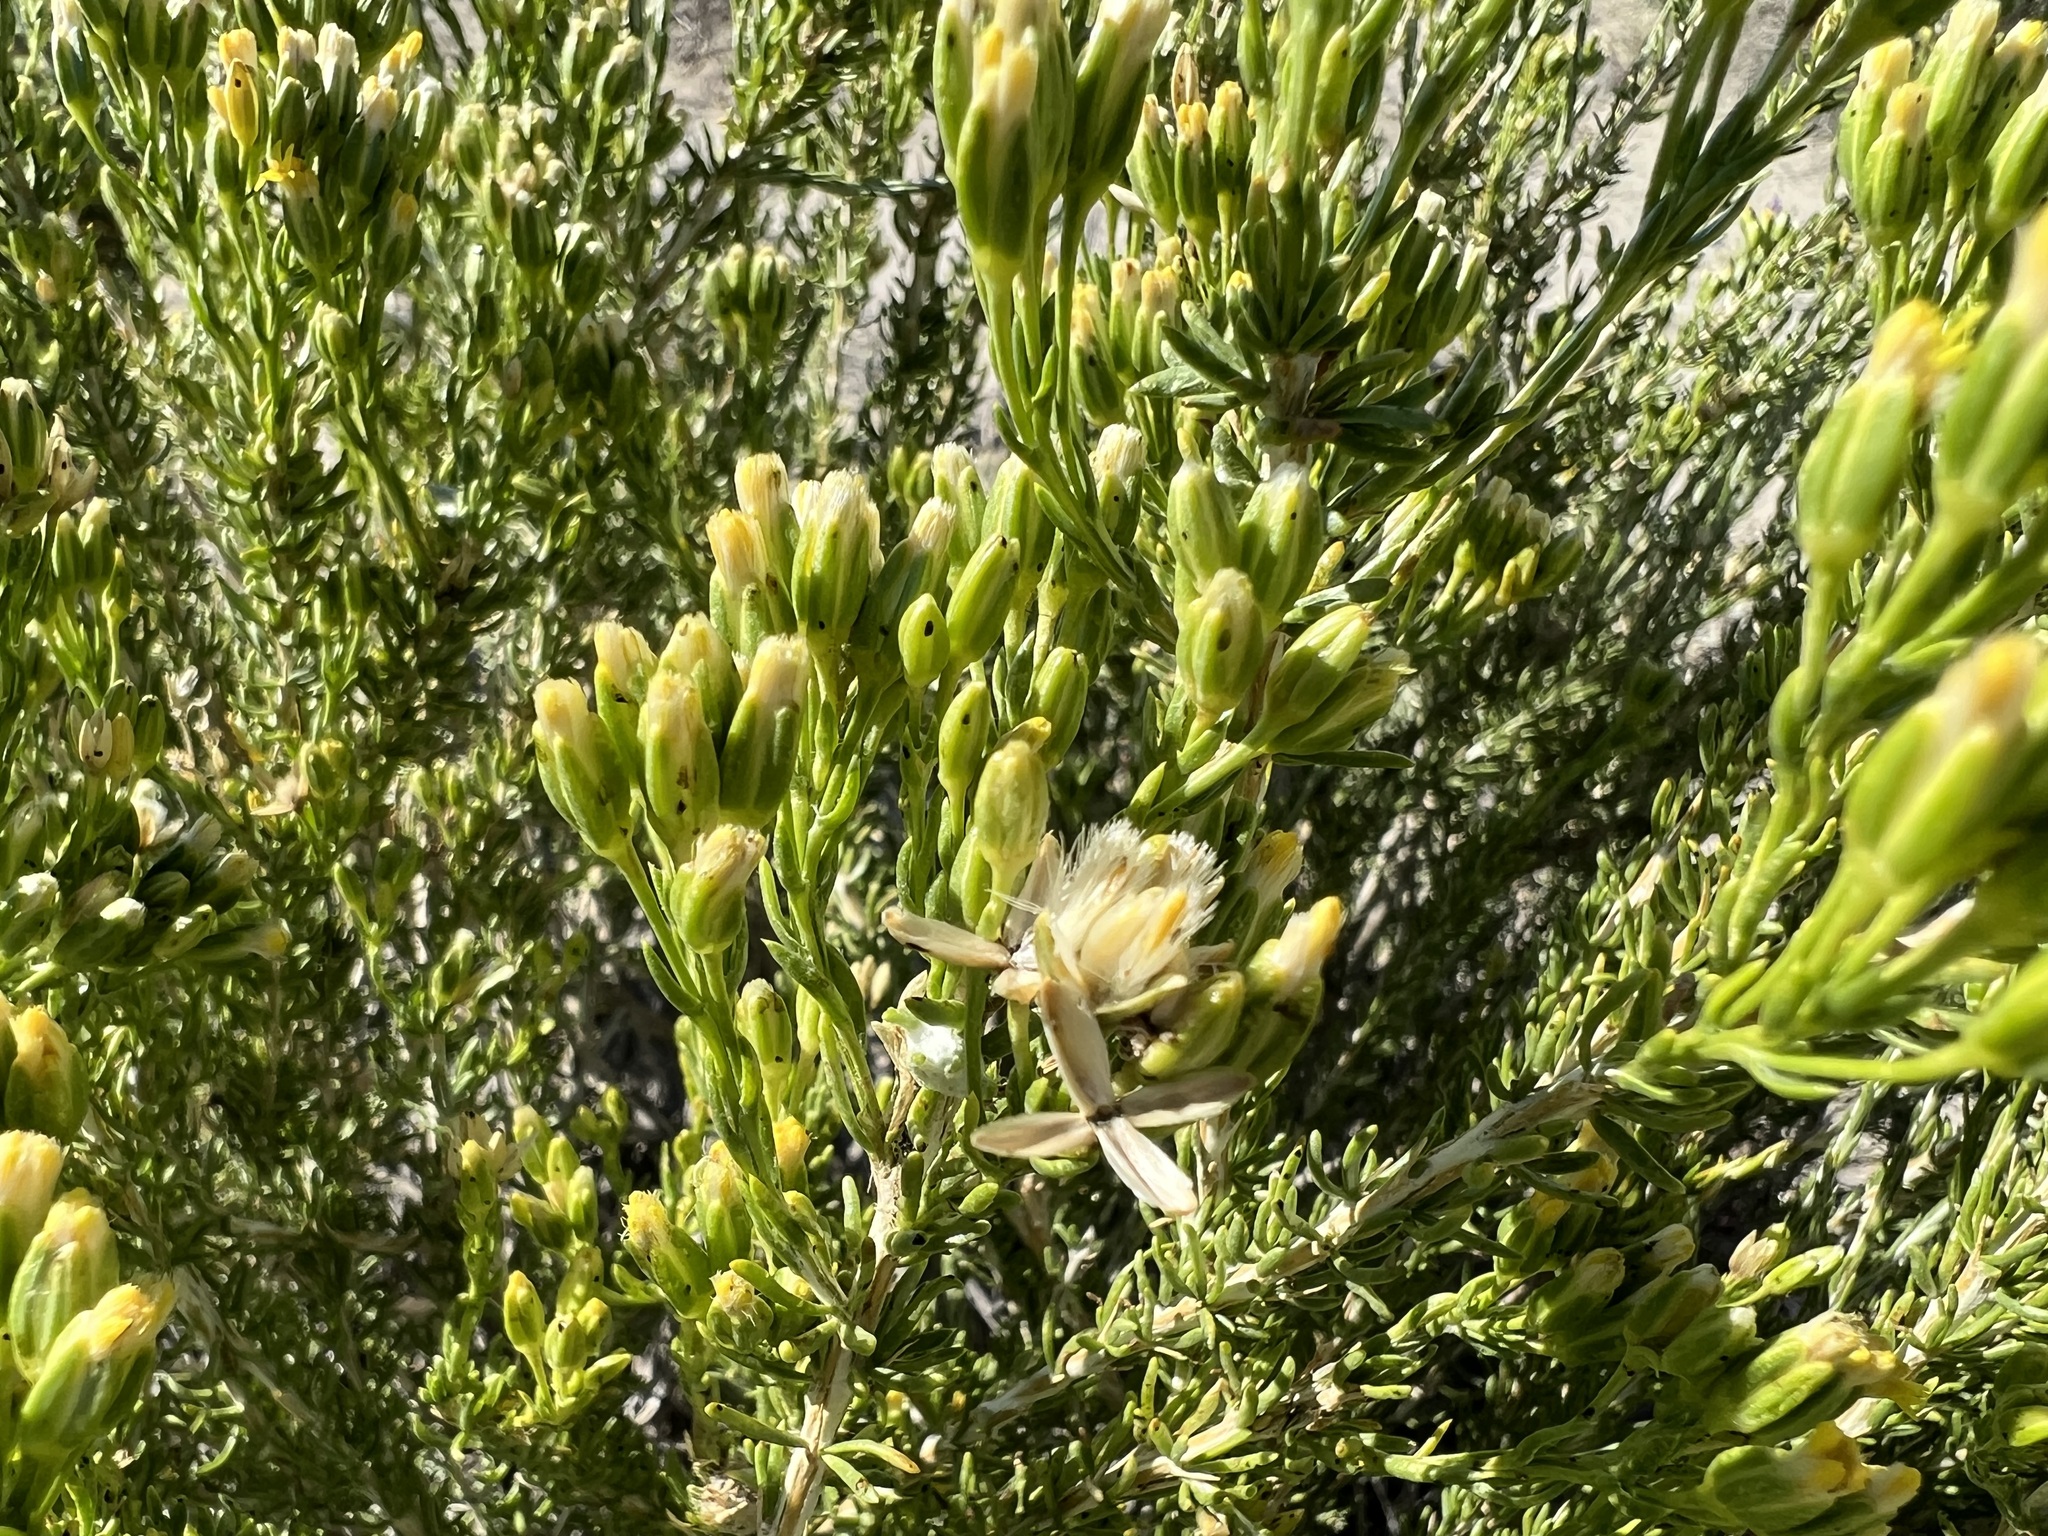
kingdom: Plantae
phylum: Tracheophyta
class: Magnoliopsida
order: Asterales
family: Asteraceae
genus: Tetradymia
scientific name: Tetradymia glabrata
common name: Smooth tetradymia
